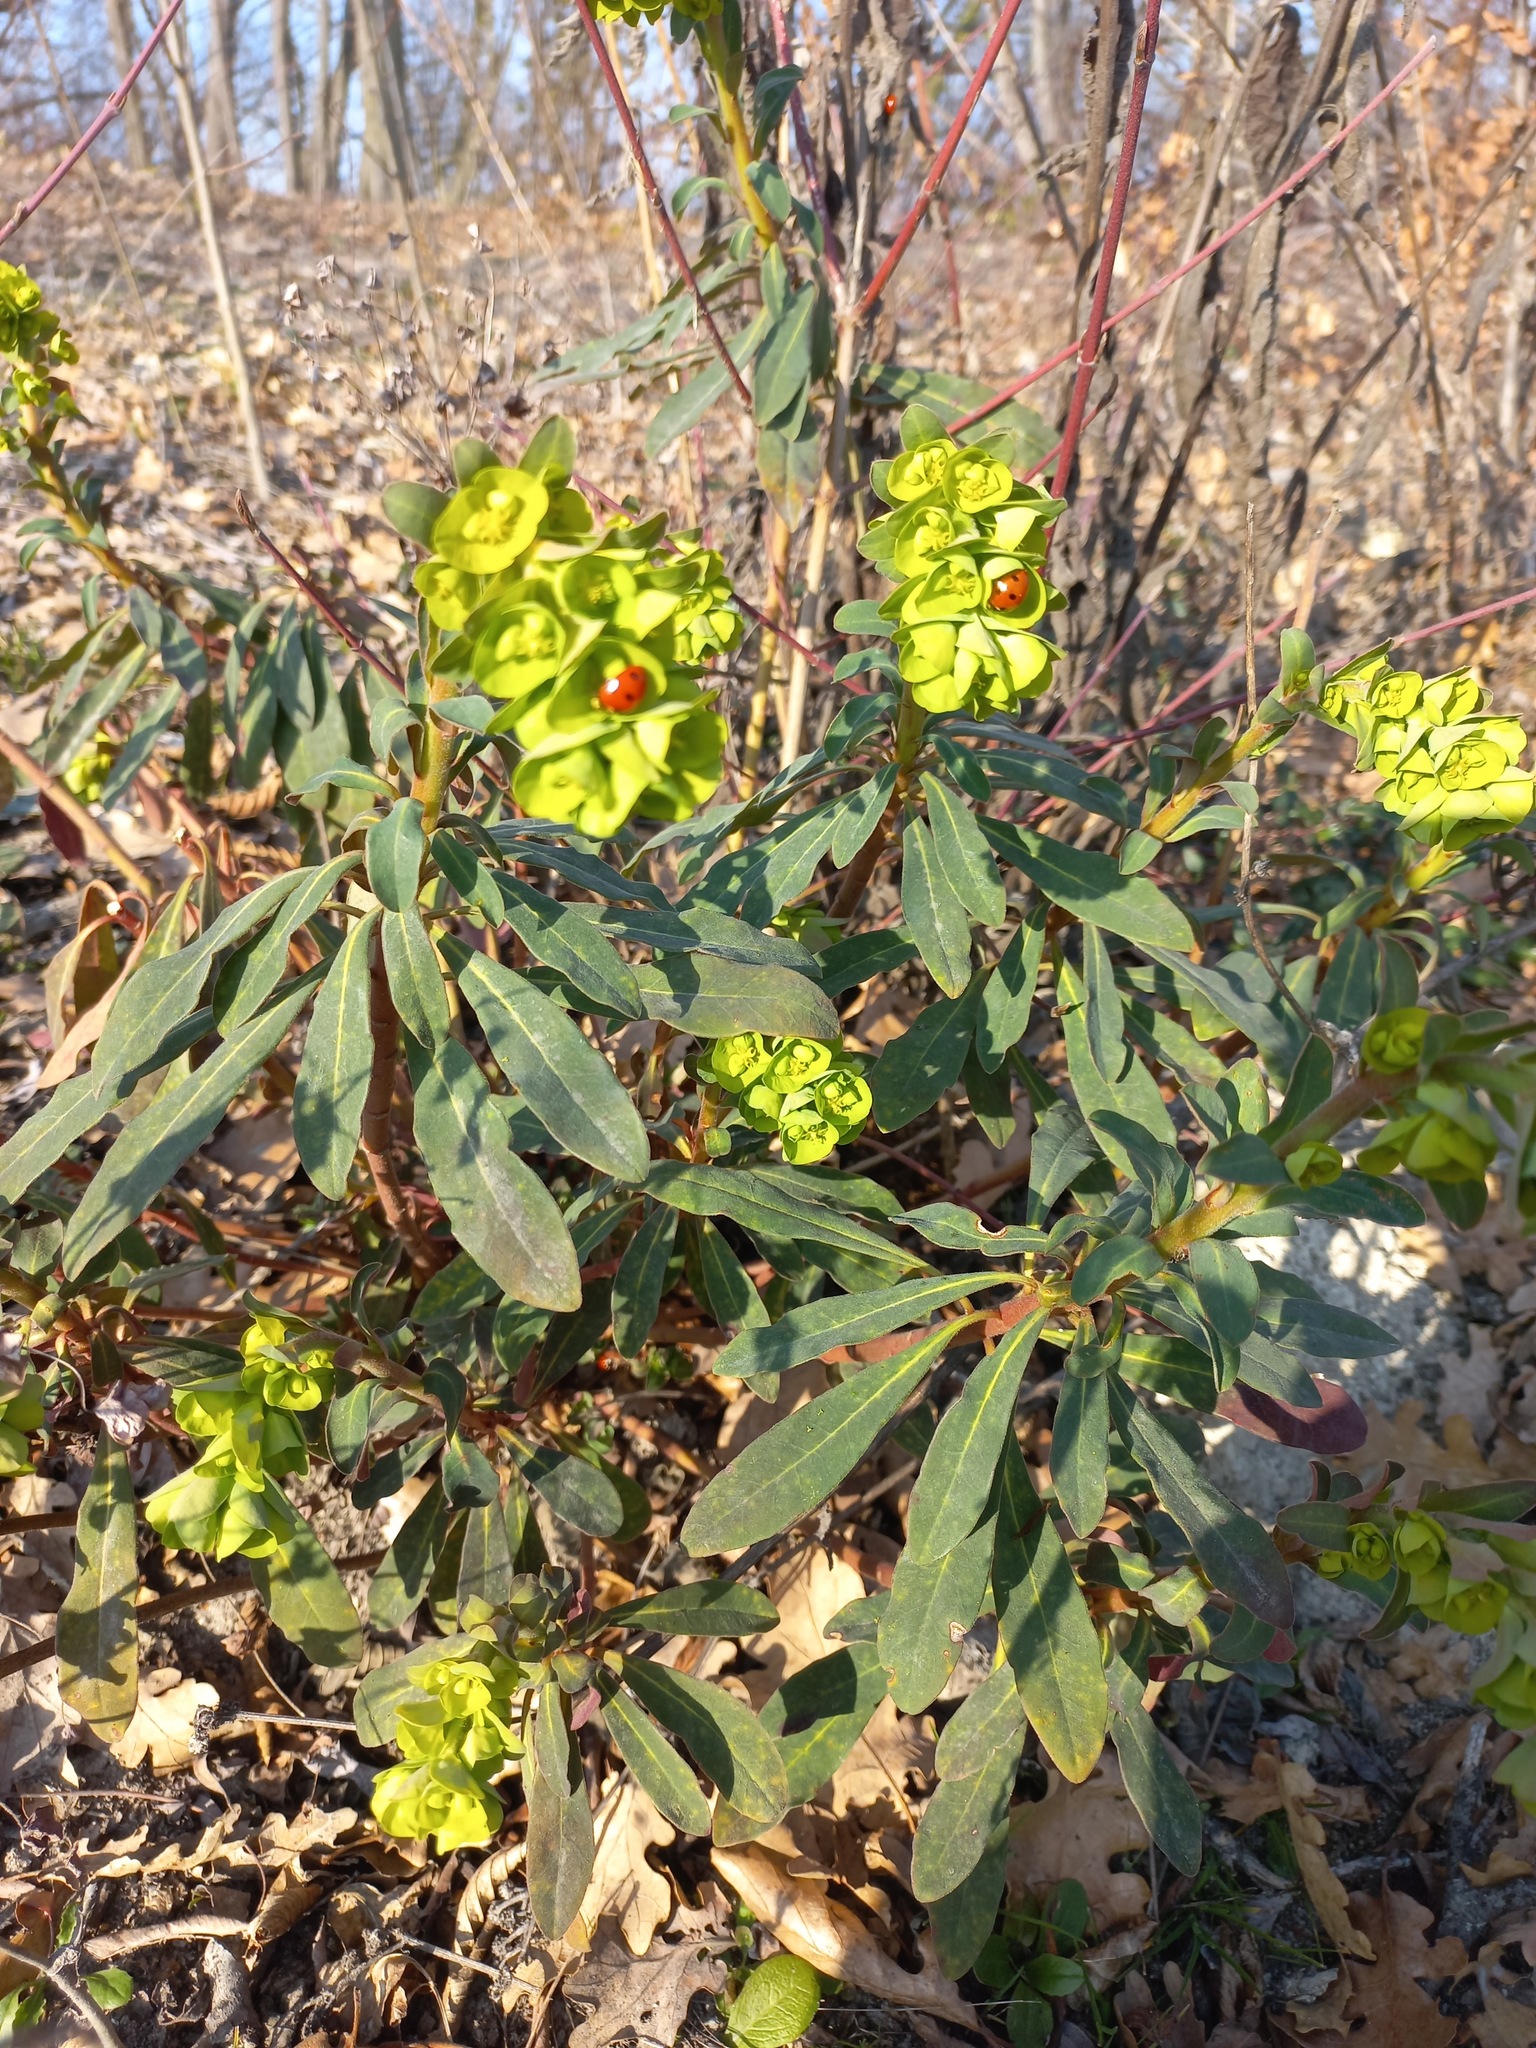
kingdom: Plantae
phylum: Tracheophyta
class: Magnoliopsida
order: Malpighiales
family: Euphorbiaceae
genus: Euphorbia
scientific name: Euphorbia amygdaloides
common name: Wood spurge
